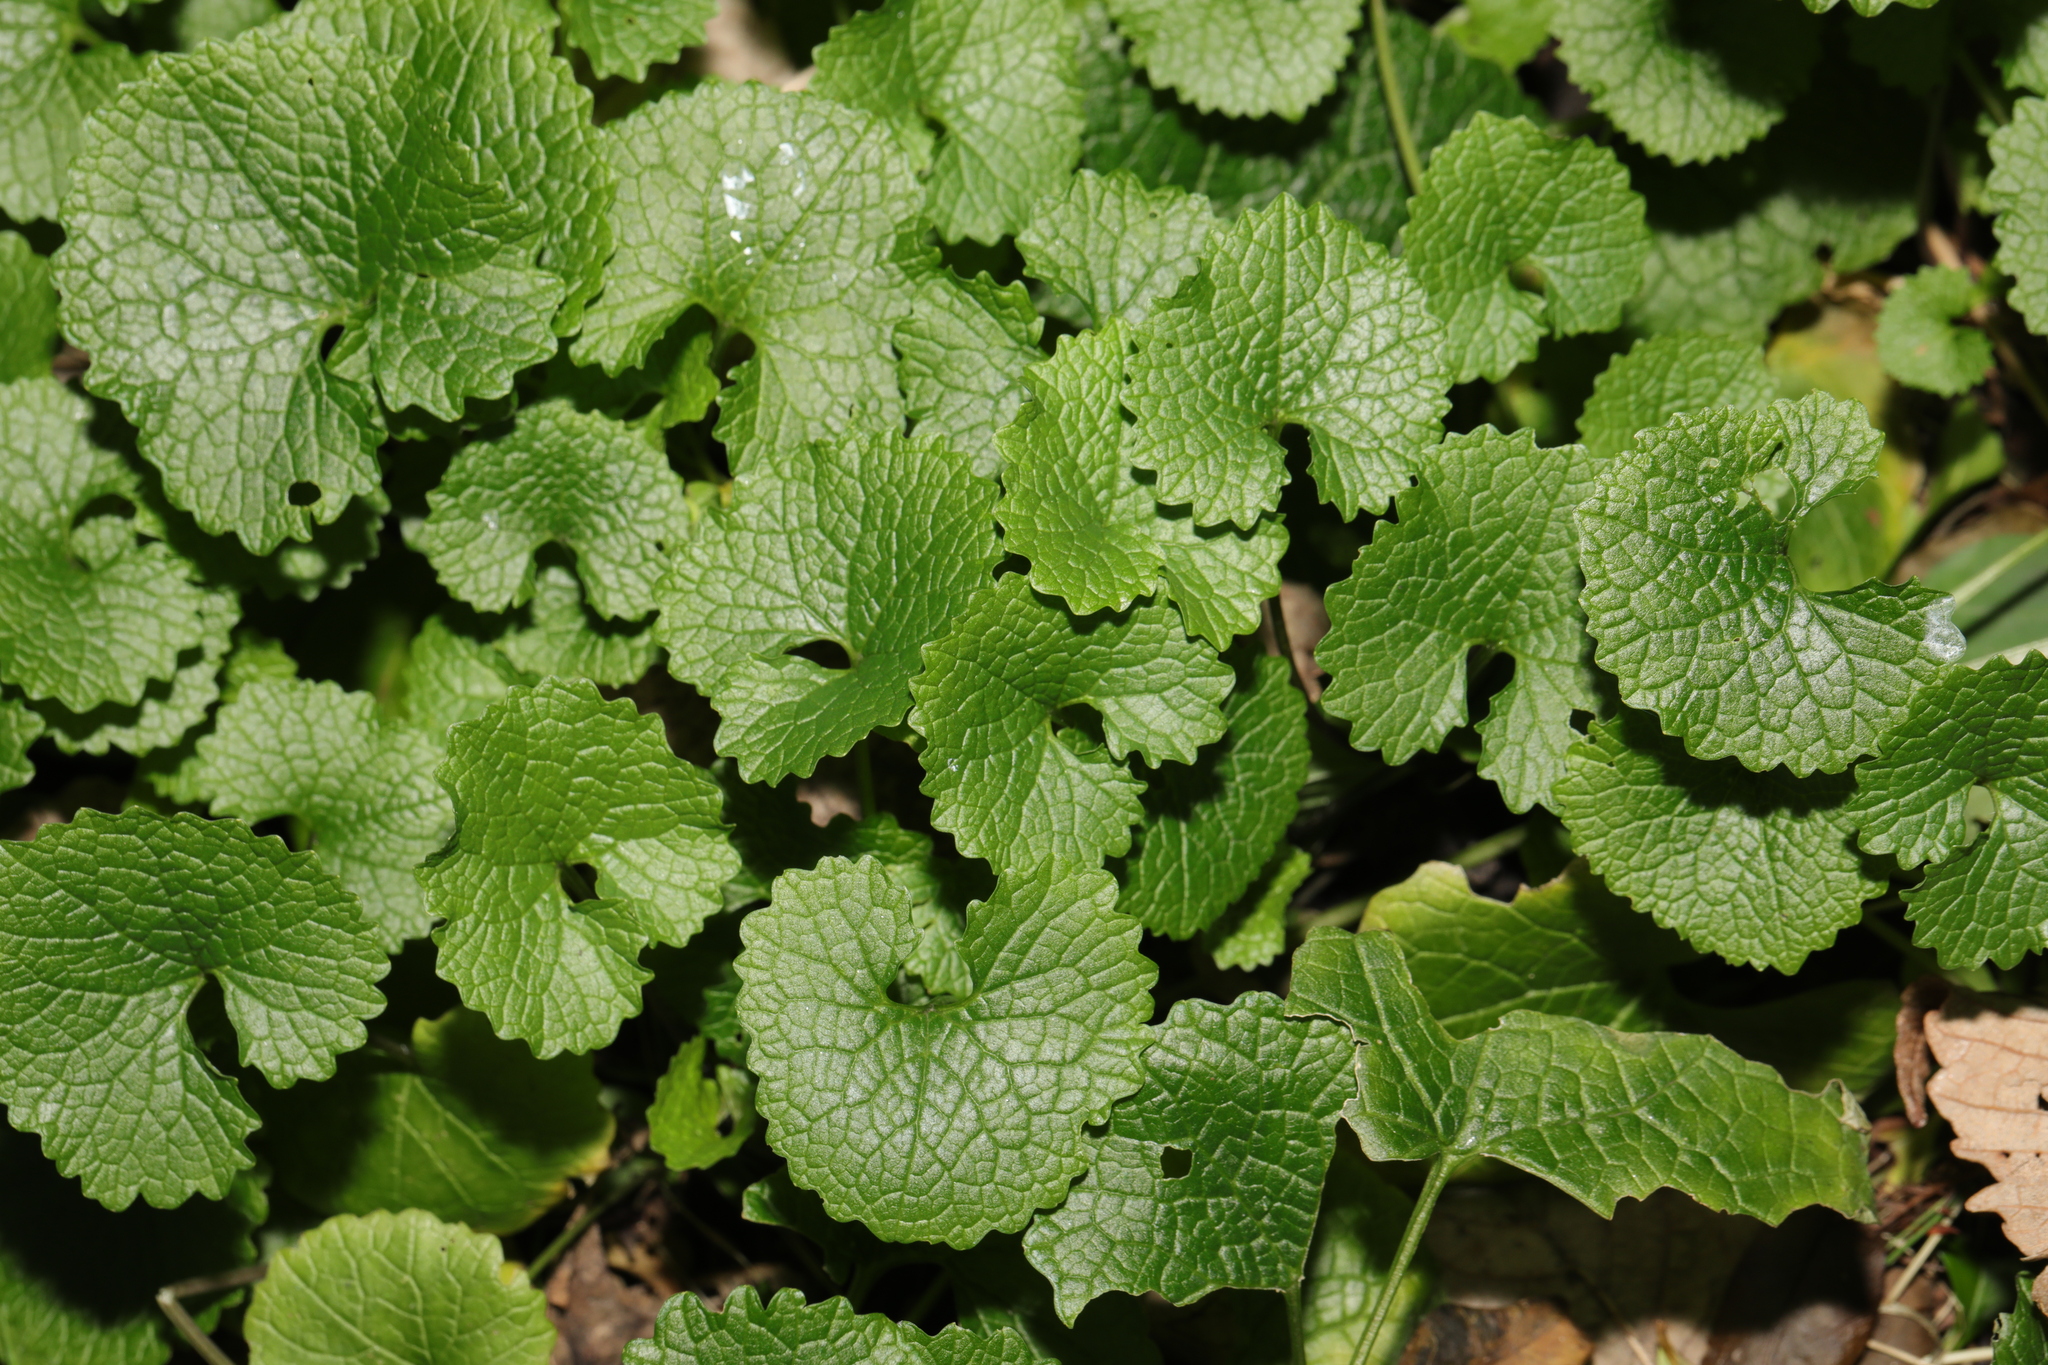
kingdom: Plantae
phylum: Tracheophyta
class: Magnoliopsida
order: Brassicales
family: Brassicaceae
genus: Alliaria
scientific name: Alliaria petiolata
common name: Garlic mustard
